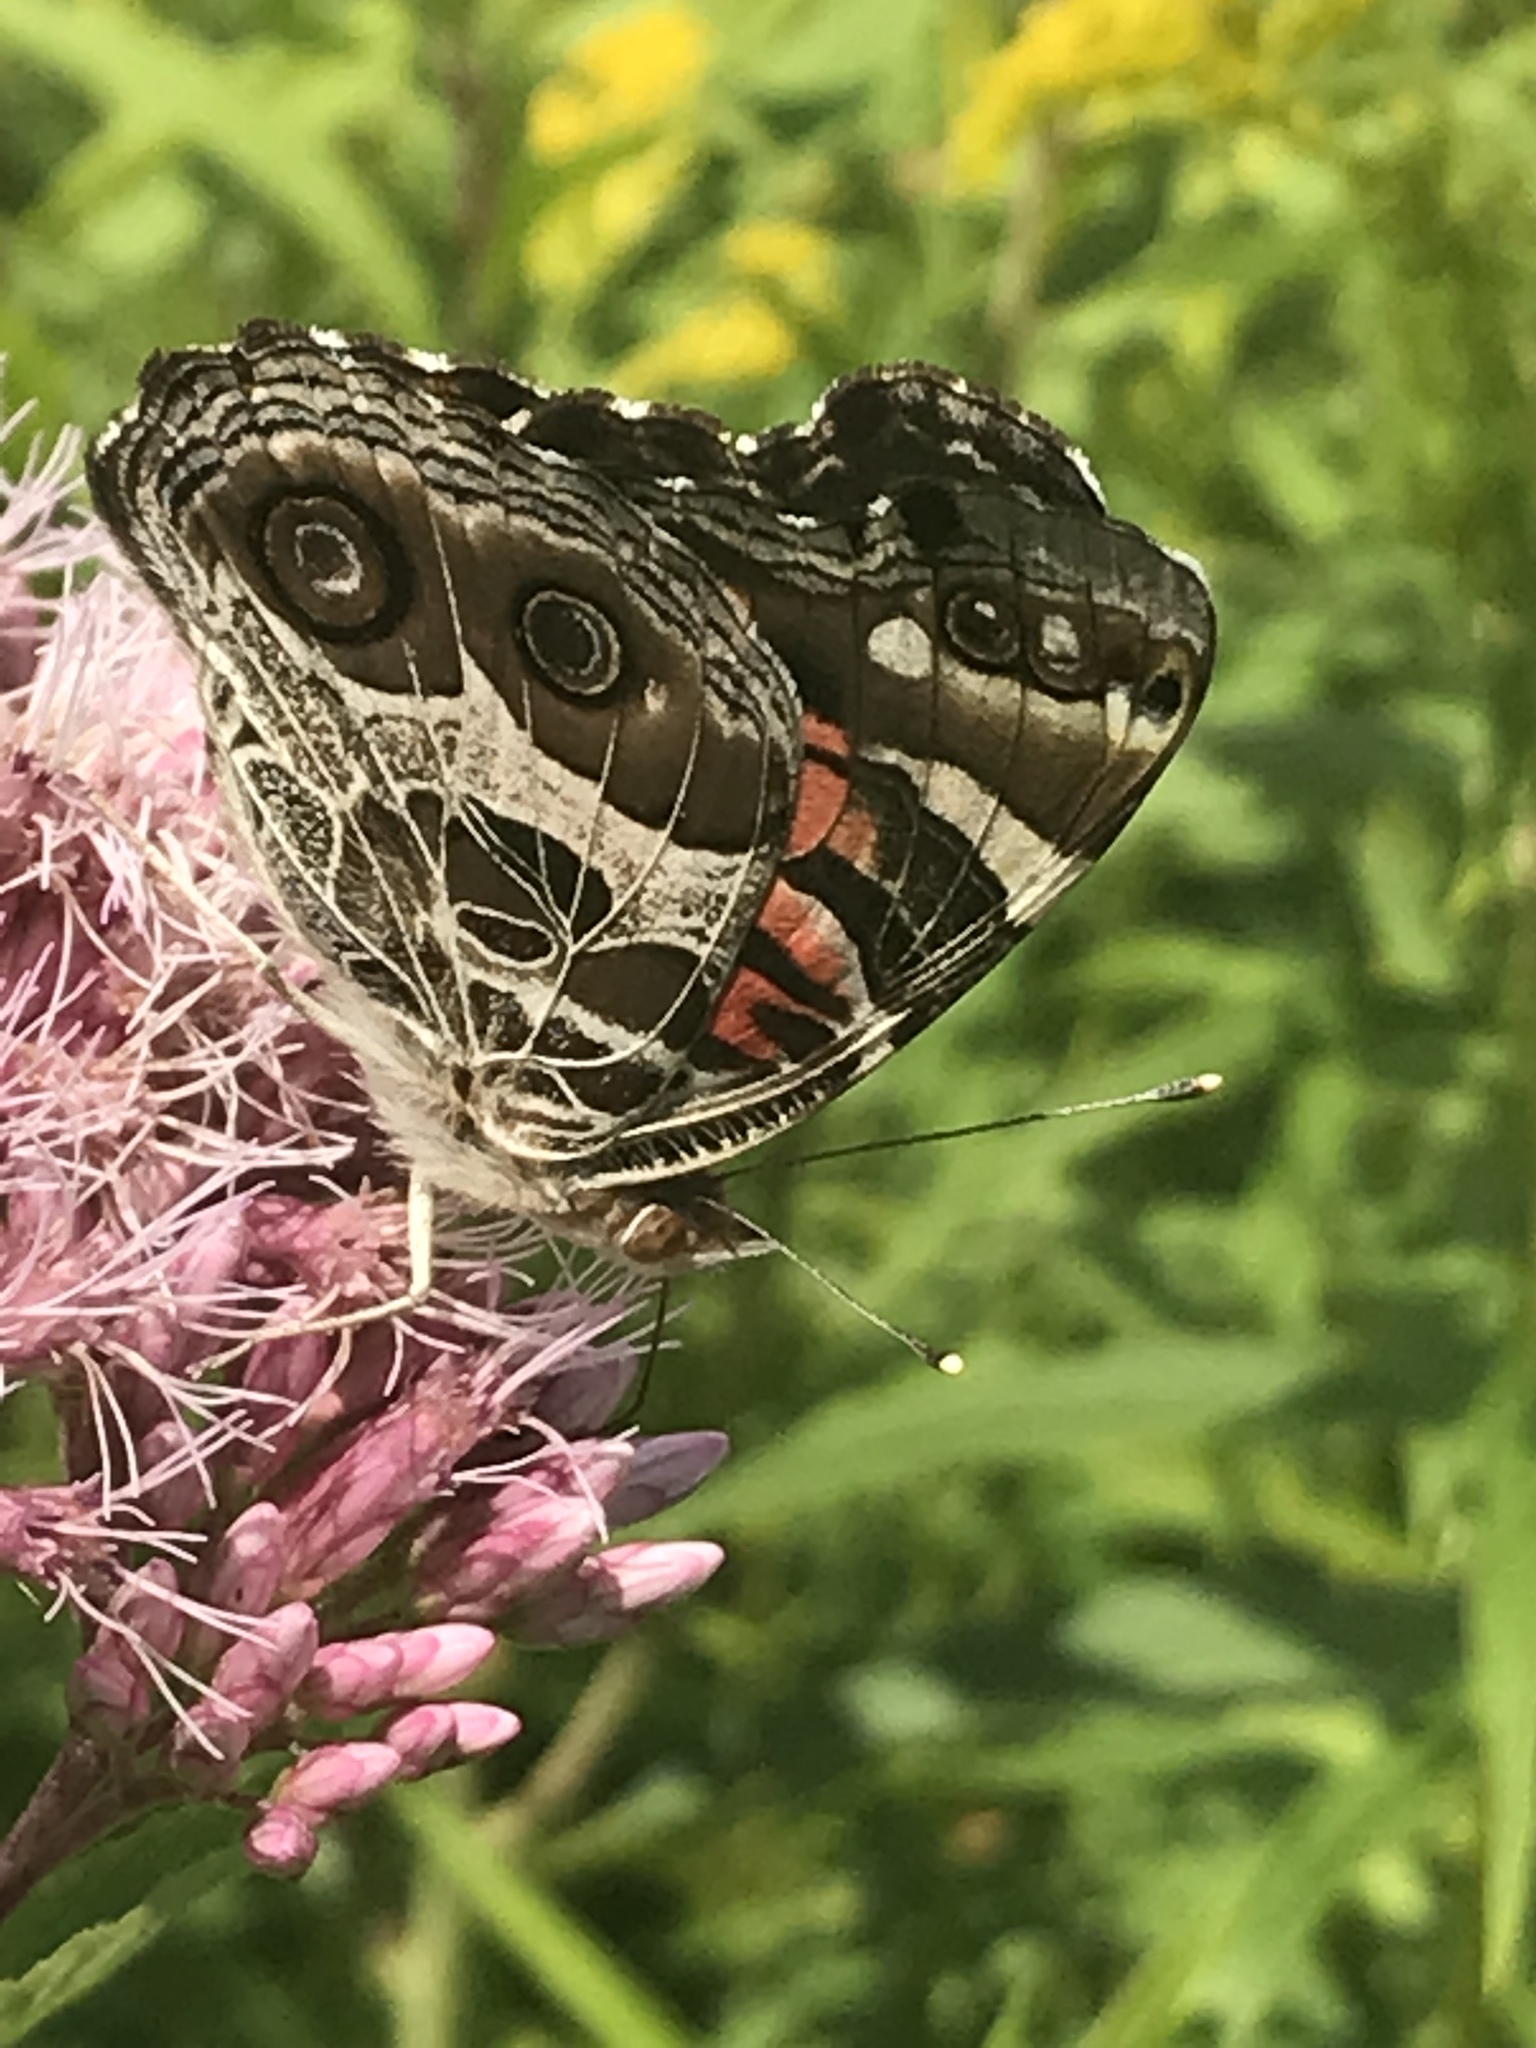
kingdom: Animalia
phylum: Arthropoda
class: Insecta
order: Lepidoptera
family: Nymphalidae
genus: Vanessa
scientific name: Vanessa virginiensis
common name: American lady
